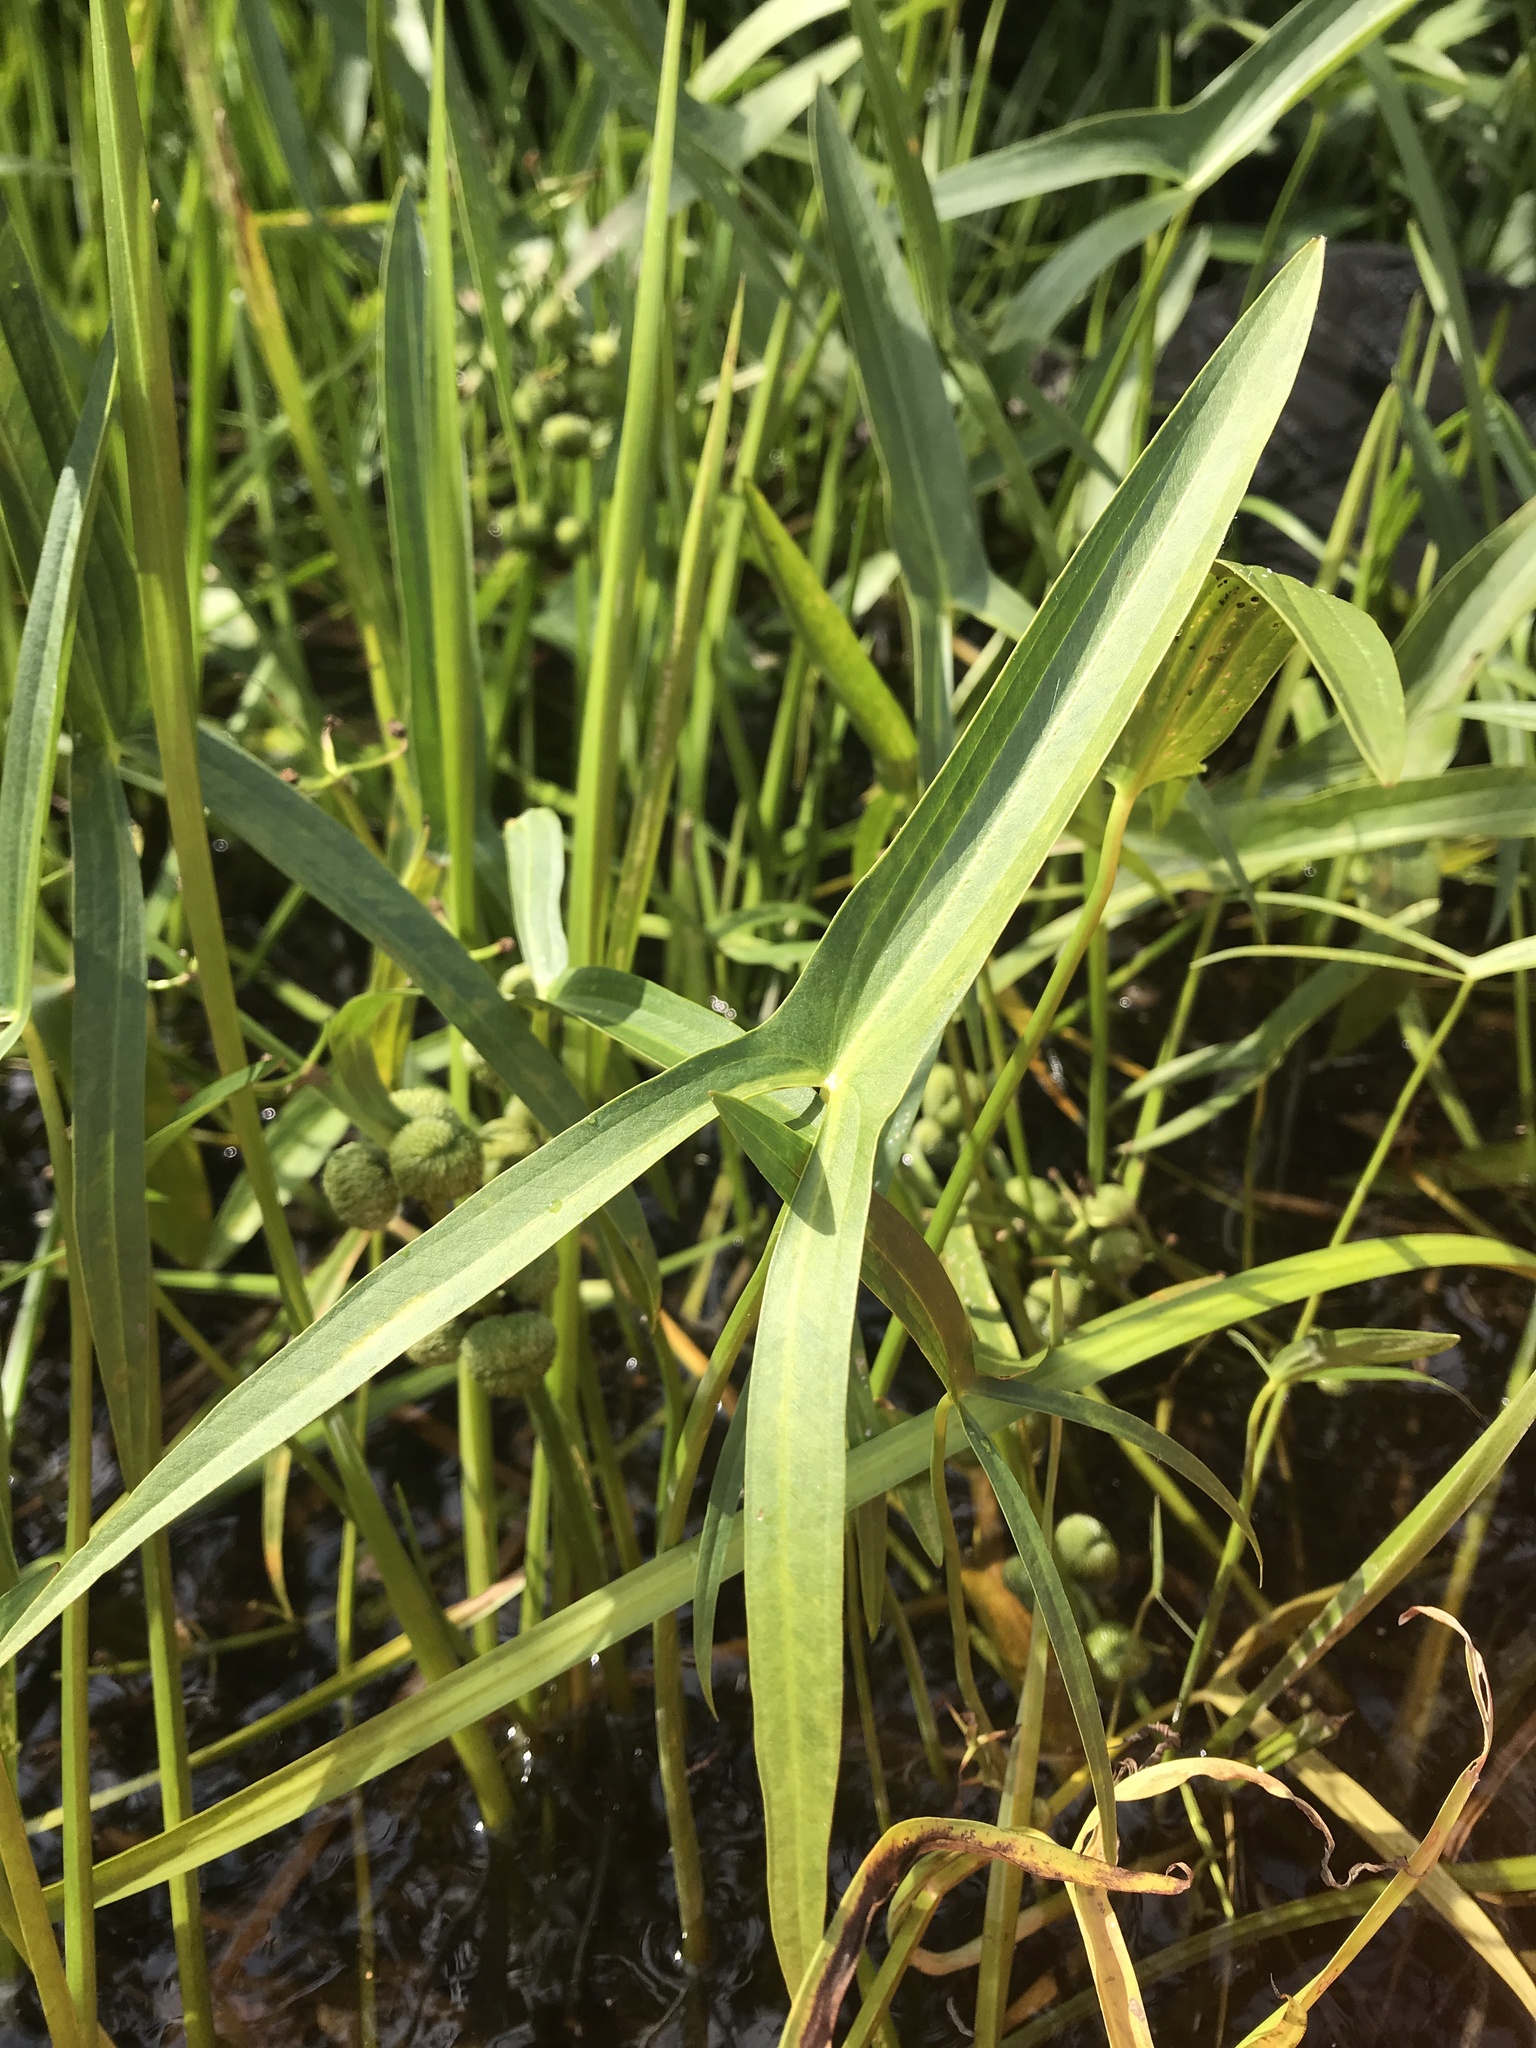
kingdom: Plantae
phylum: Tracheophyta
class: Liliopsida
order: Alismatales
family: Alismataceae
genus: Sagittaria
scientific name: Sagittaria latifolia
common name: Duck-potato
